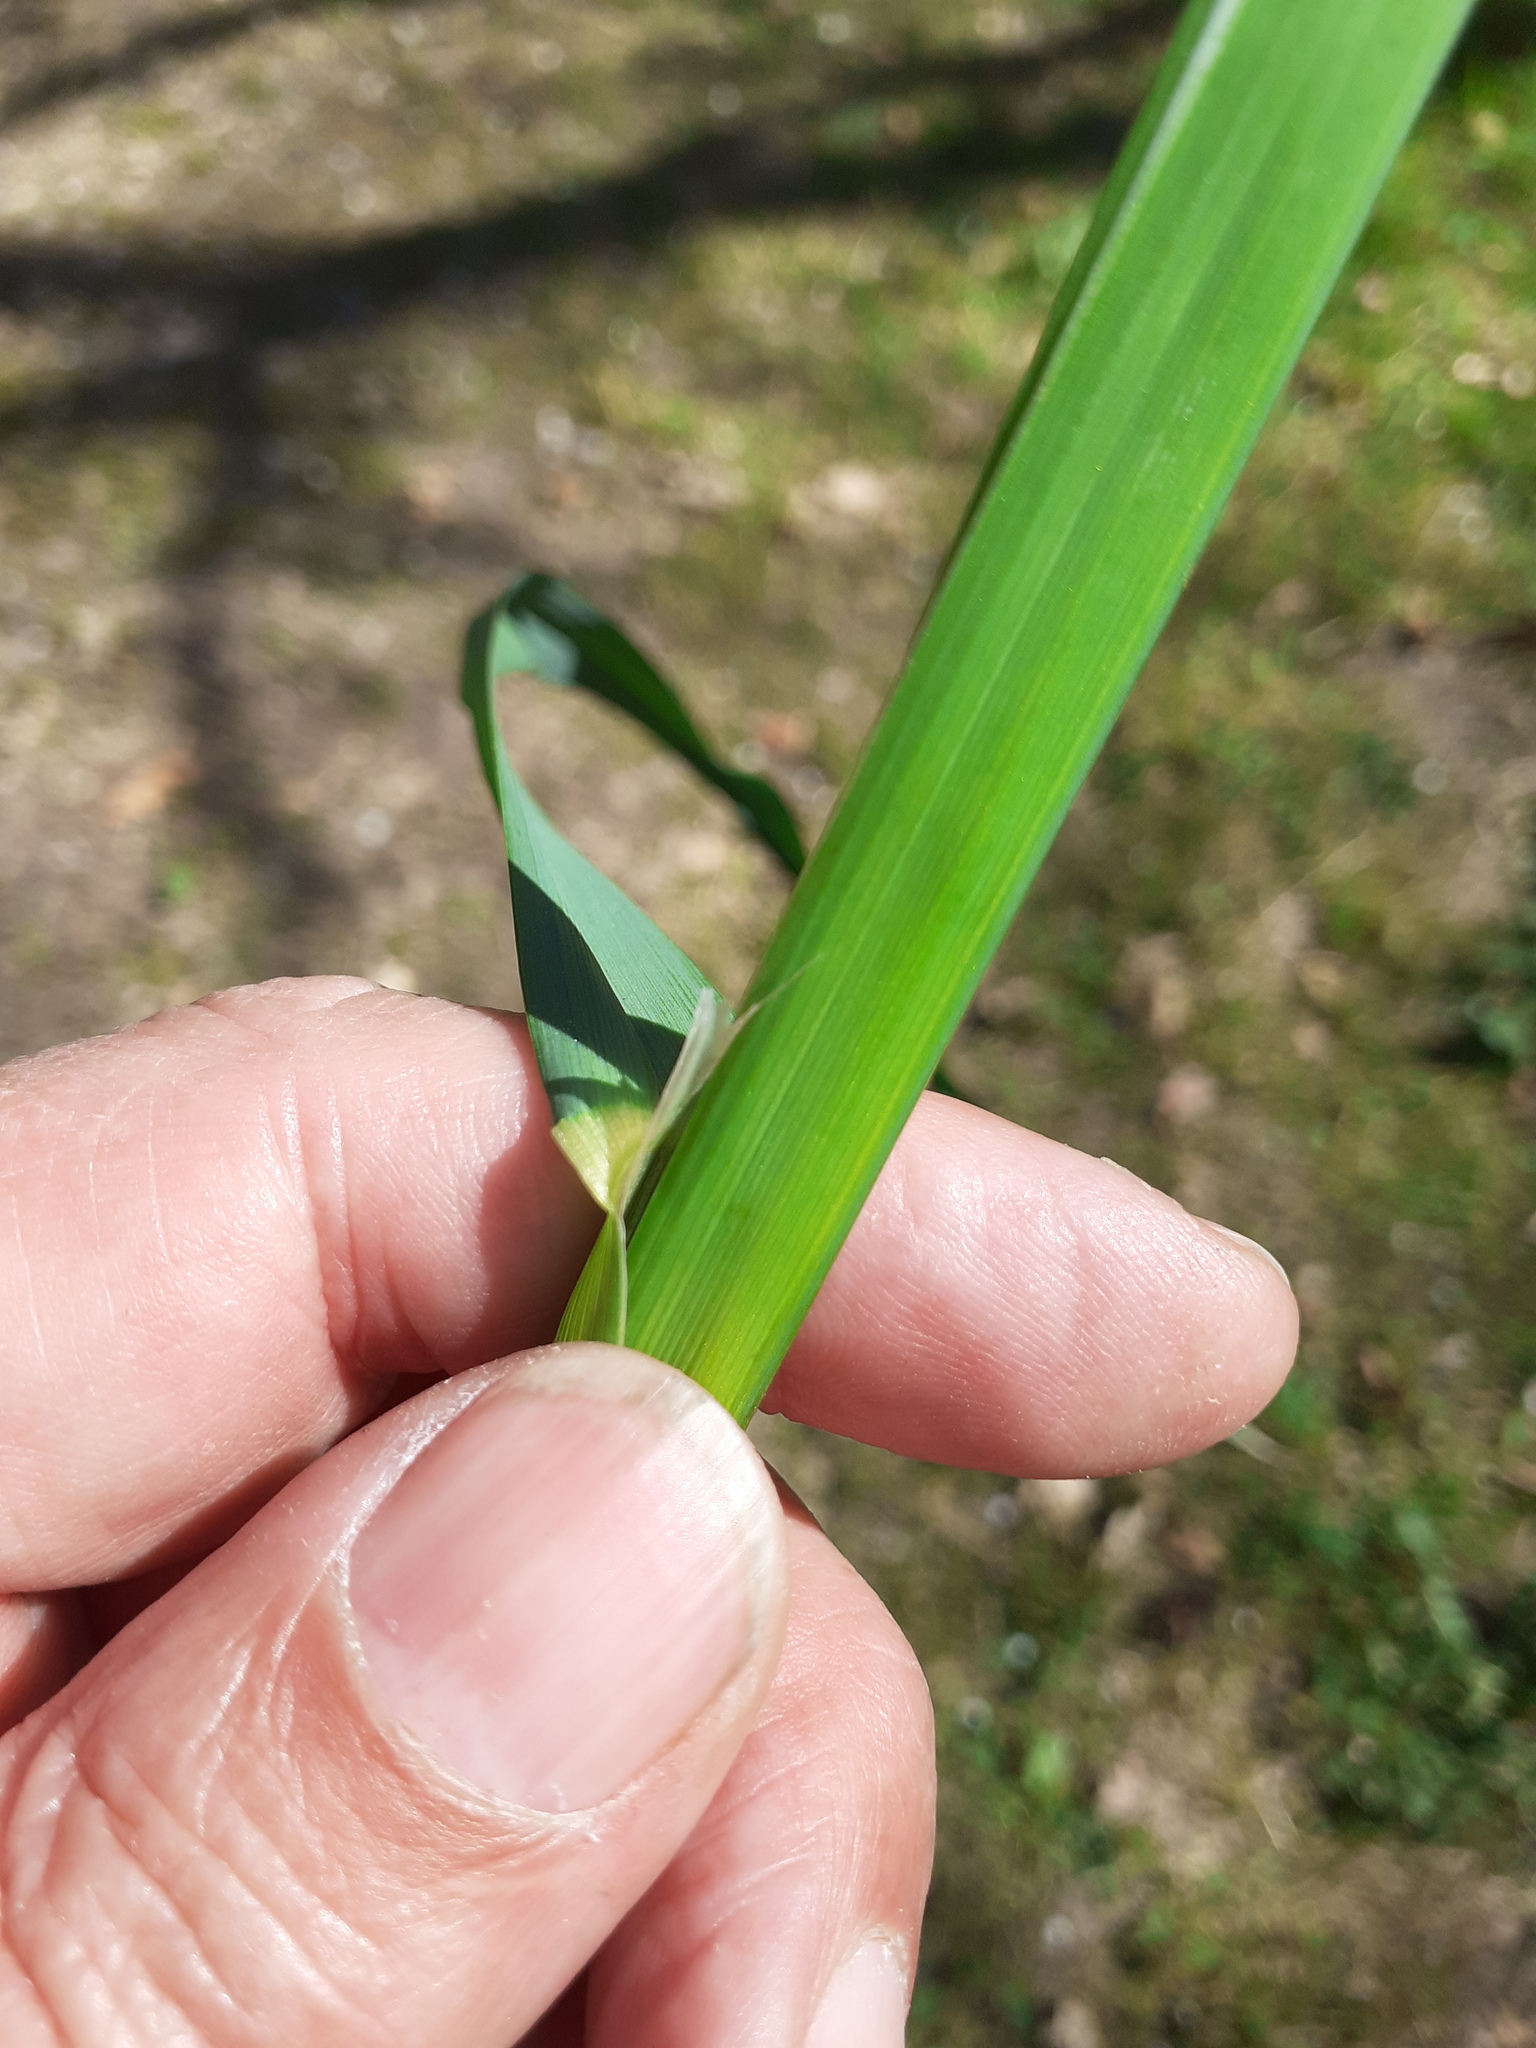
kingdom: Plantae
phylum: Tracheophyta
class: Liliopsida
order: Poales
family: Poaceae
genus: Dactylis
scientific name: Dactylis glomerata
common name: Orchardgrass
